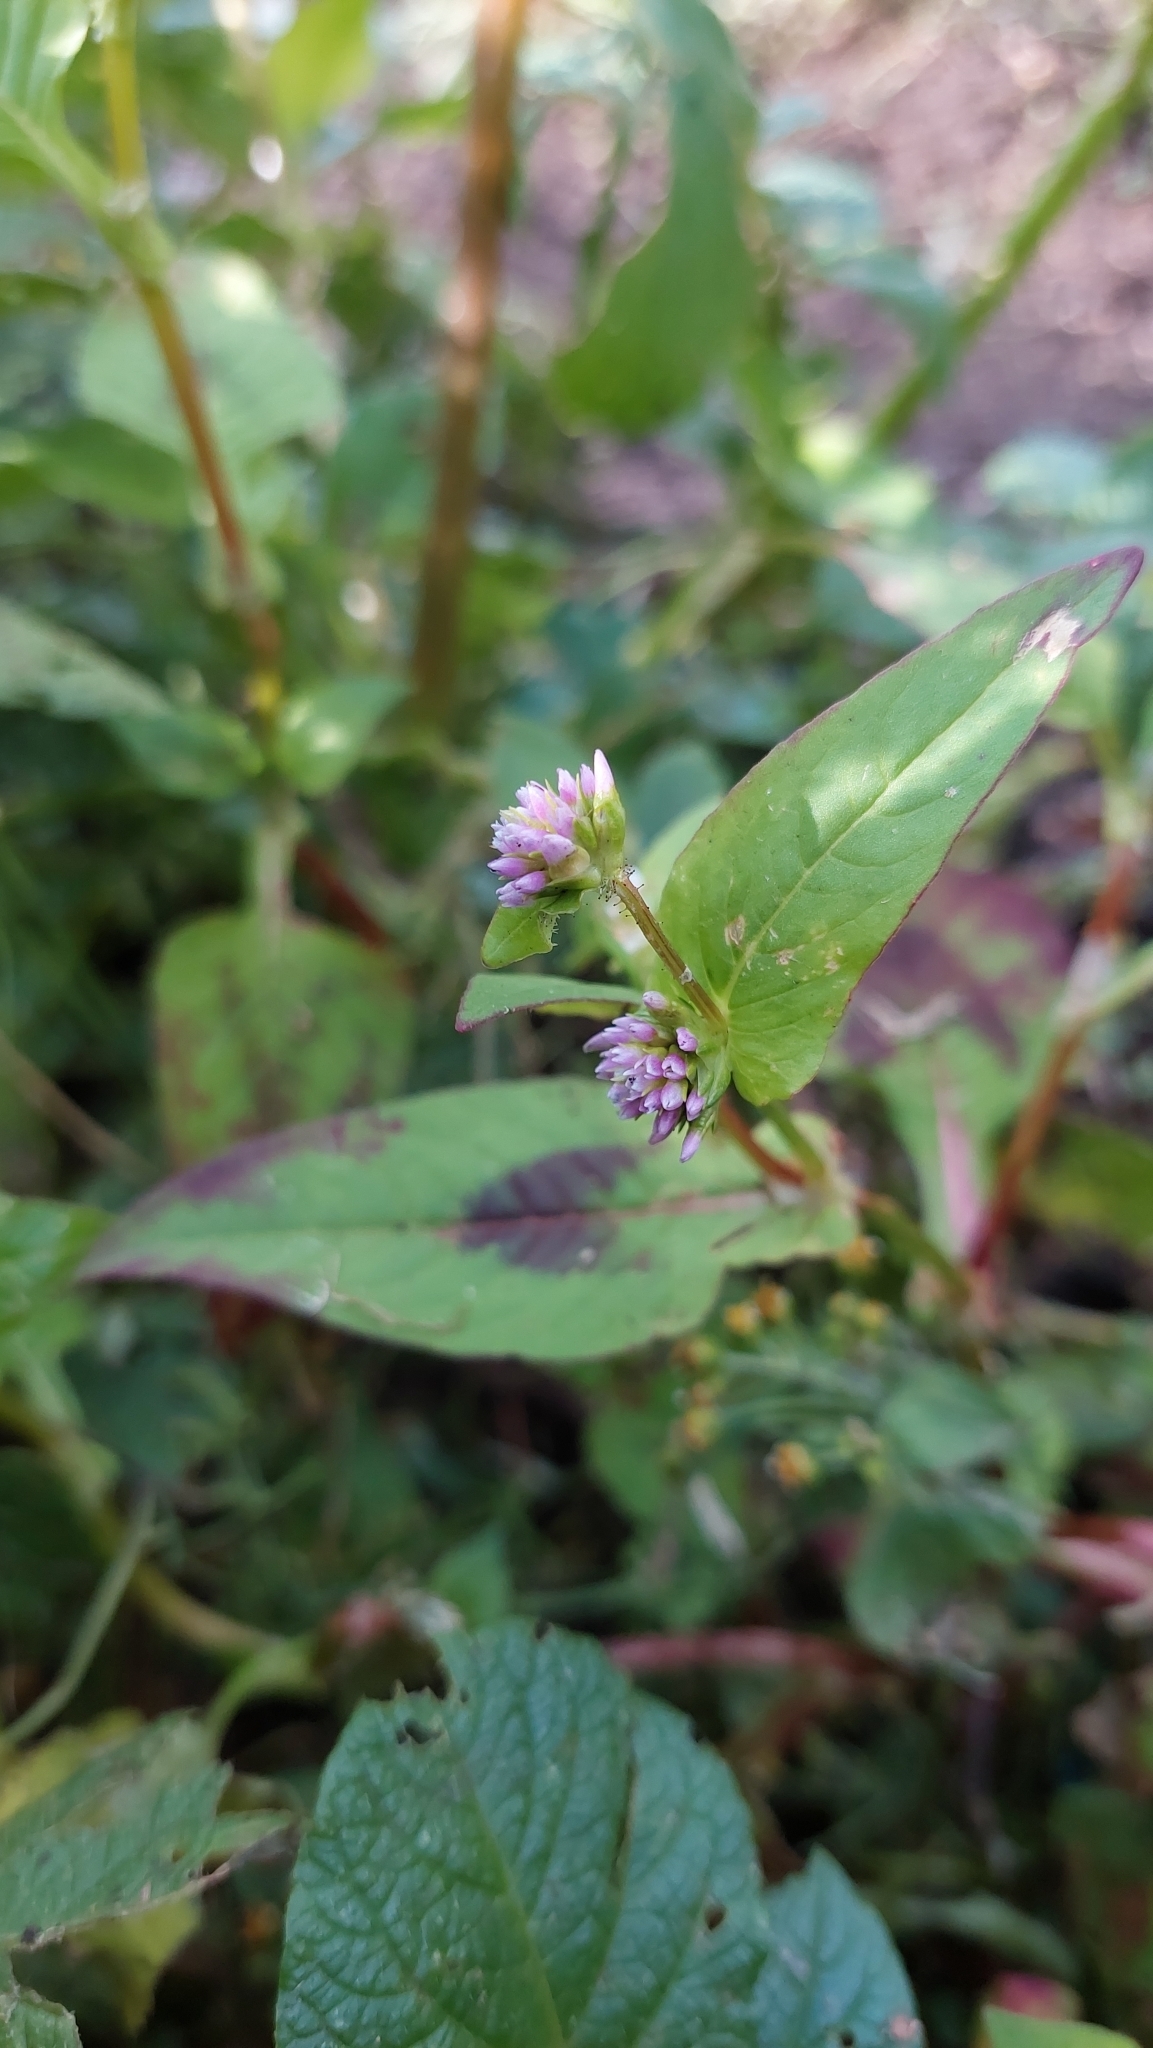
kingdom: Plantae
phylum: Tracheophyta
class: Magnoliopsida
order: Caryophyllales
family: Polygonaceae
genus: Persicaria
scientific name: Persicaria nepalensis
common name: Nepal persicaria
